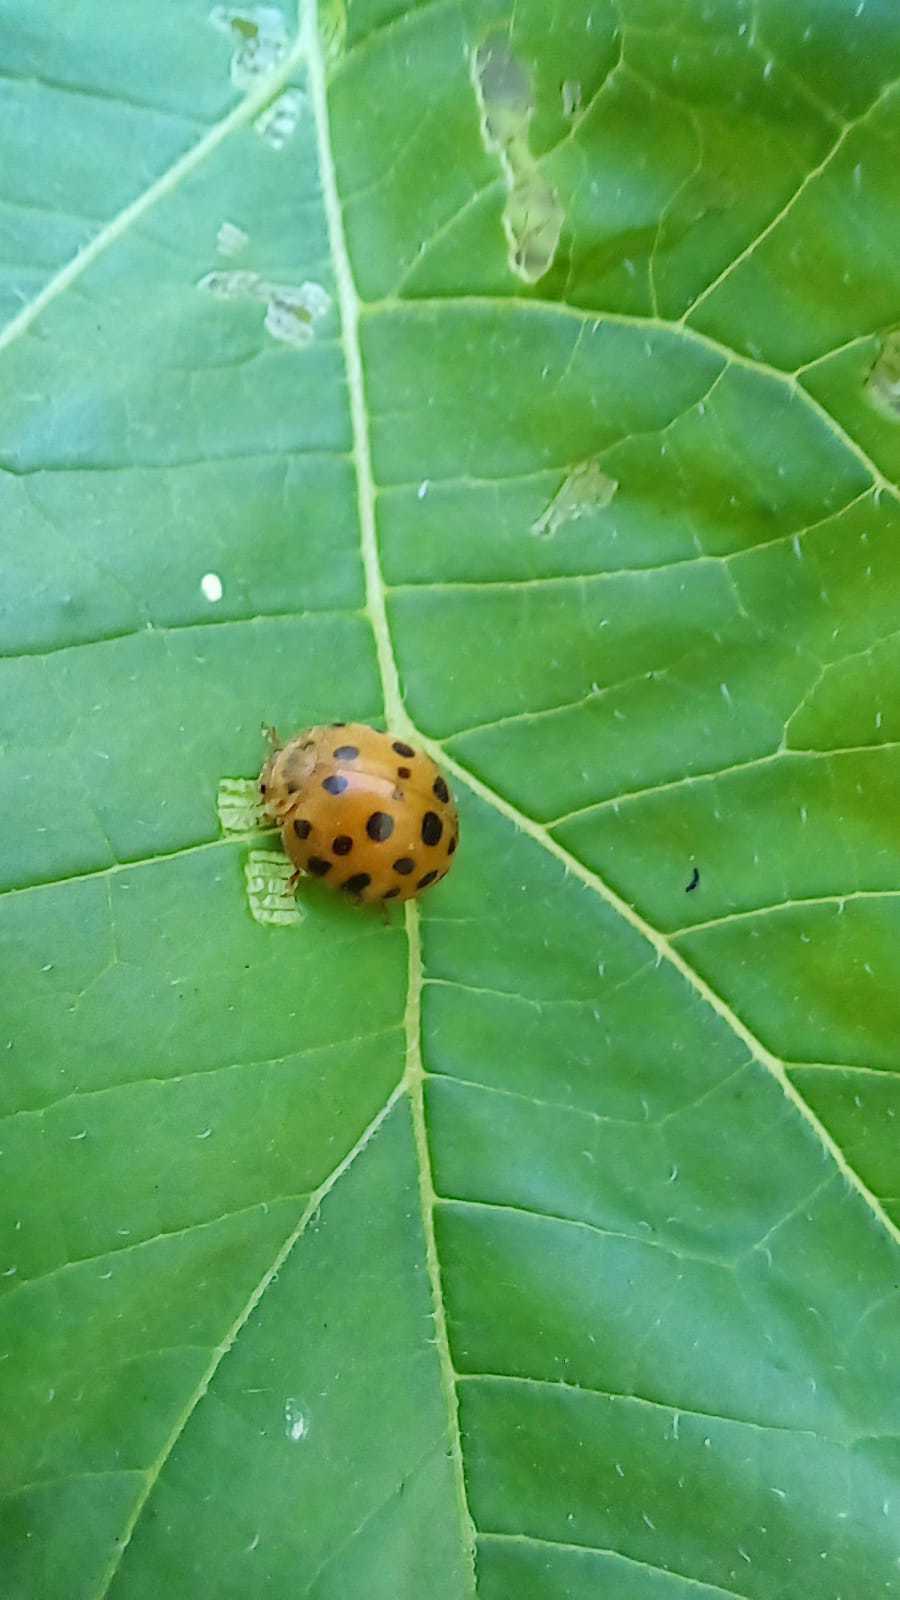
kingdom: Animalia
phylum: Arthropoda
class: Insecta
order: Coleoptera
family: Coccinellidae
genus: Henosepilachna
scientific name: Henosepilachna vigintioctopunctata
